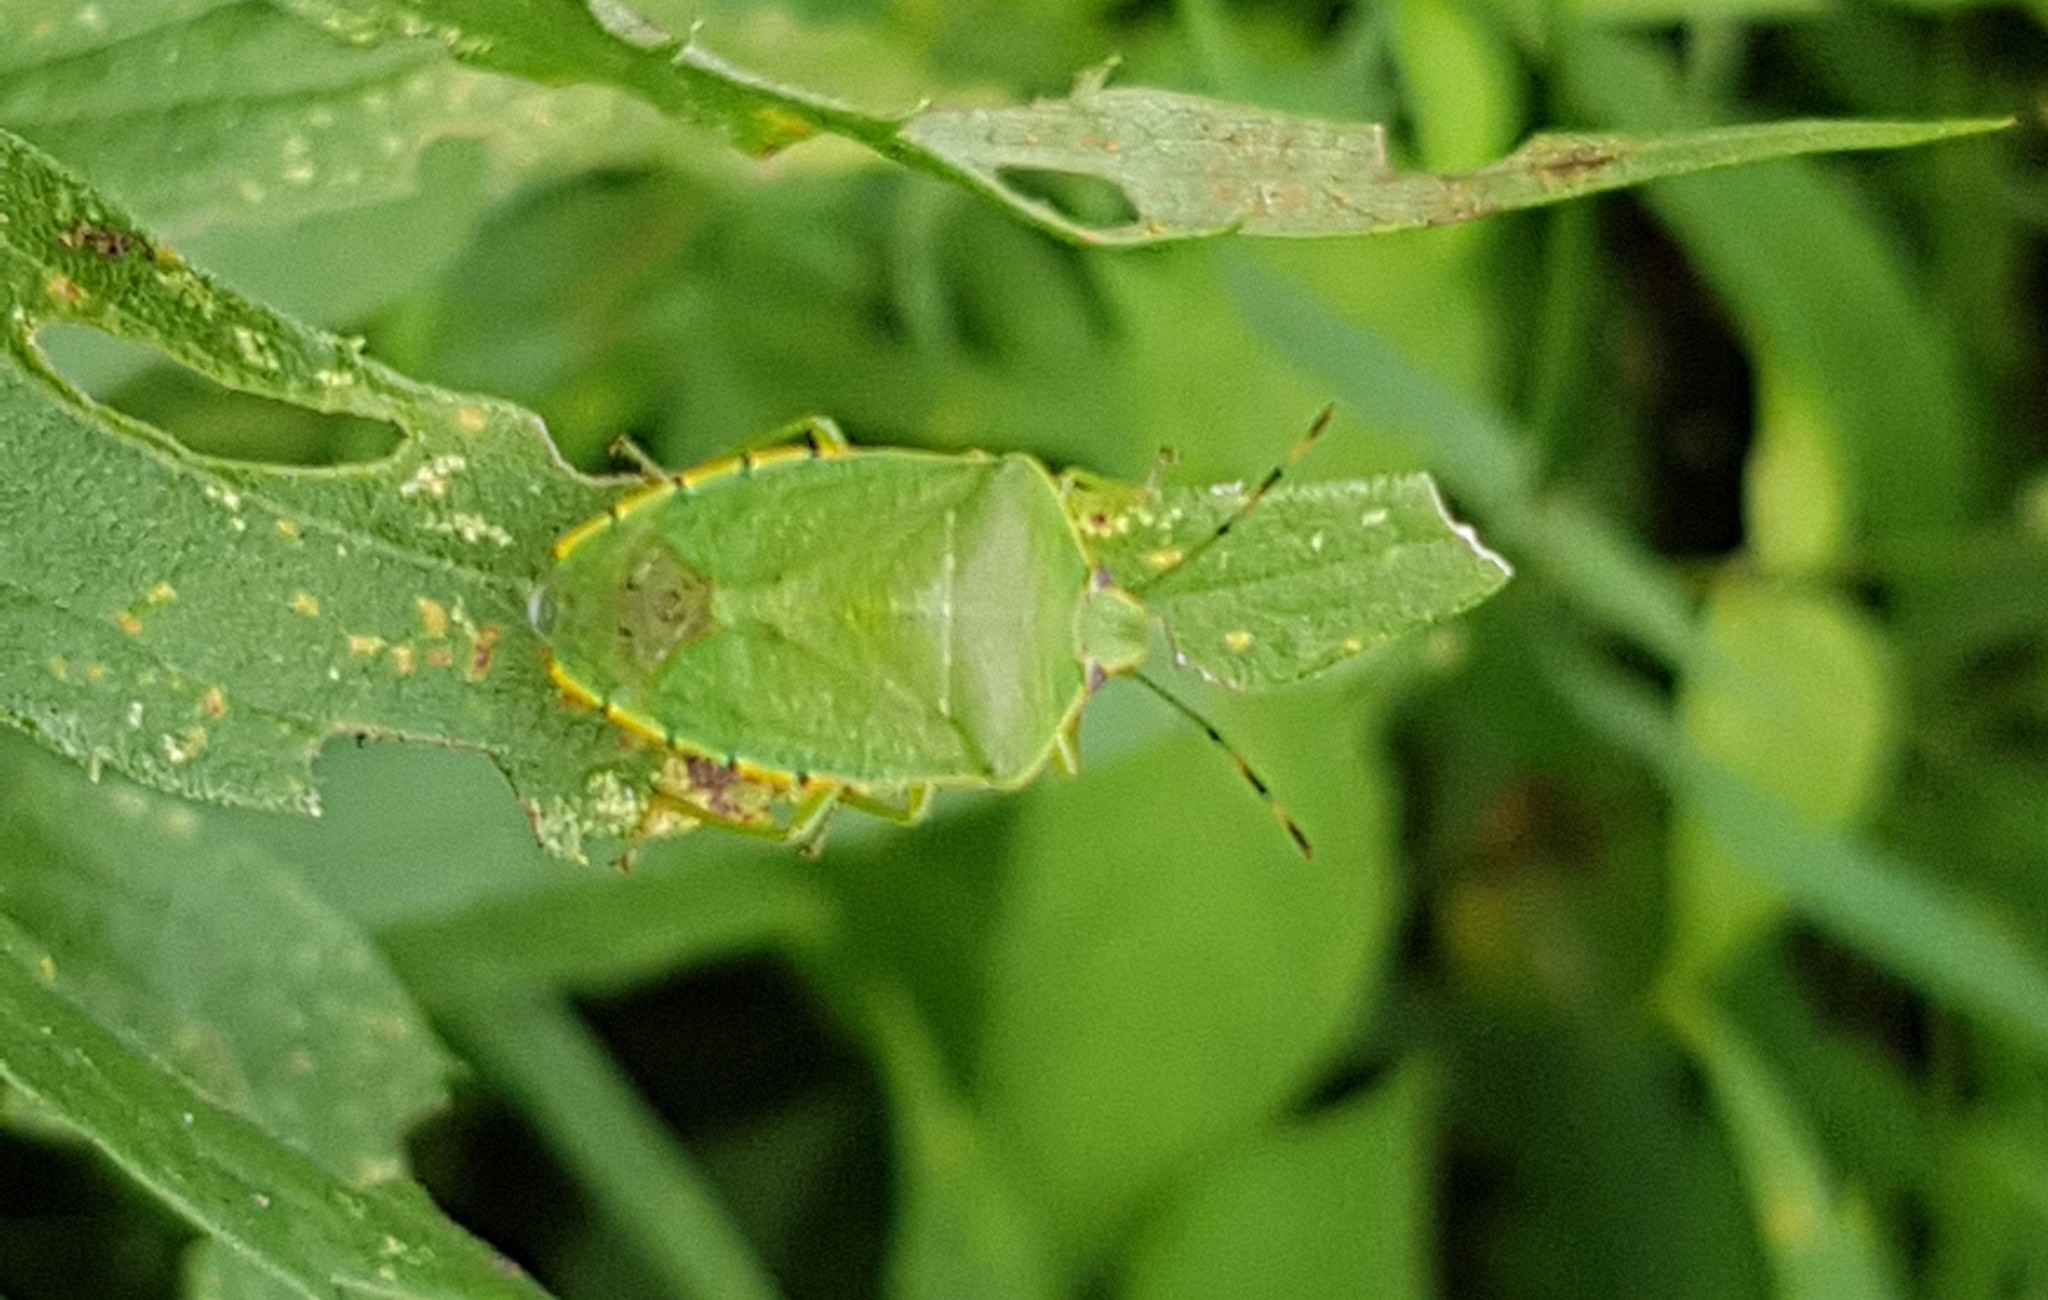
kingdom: Animalia
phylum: Arthropoda
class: Insecta
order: Hemiptera
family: Pentatomidae
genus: Chinavia
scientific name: Chinavia hilaris
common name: Green stink bug
